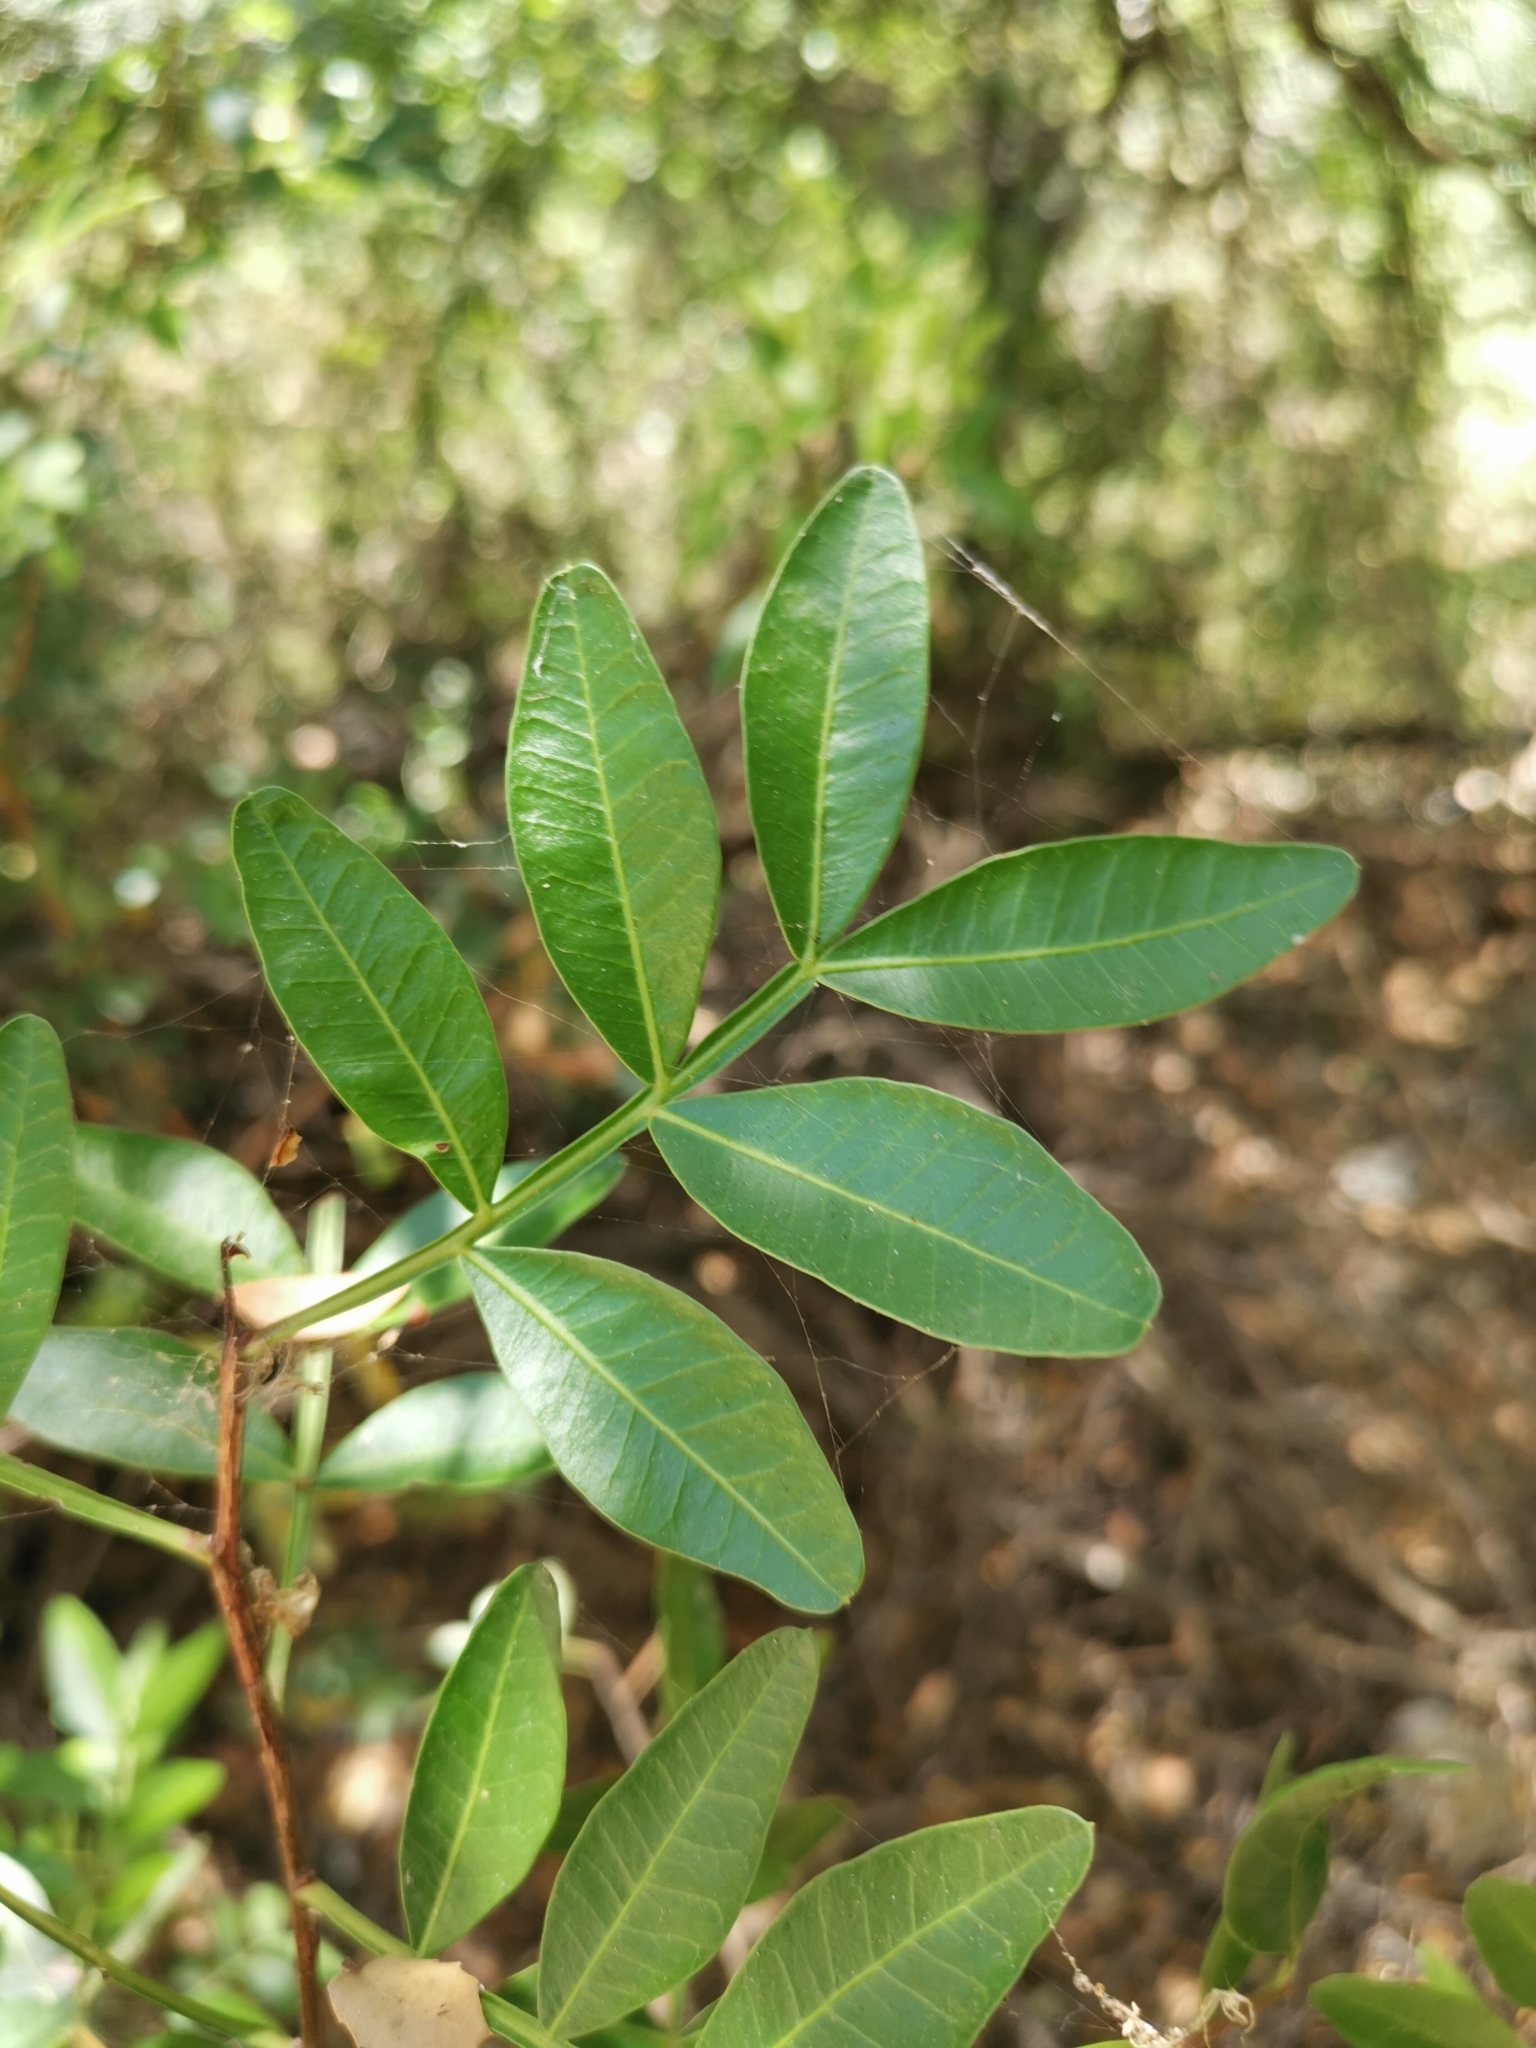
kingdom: Plantae
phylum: Tracheophyta
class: Magnoliopsida
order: Sapindales
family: Anacardiaceae
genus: Pistacia
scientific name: Pistacia lentiscus
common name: Lentisk
